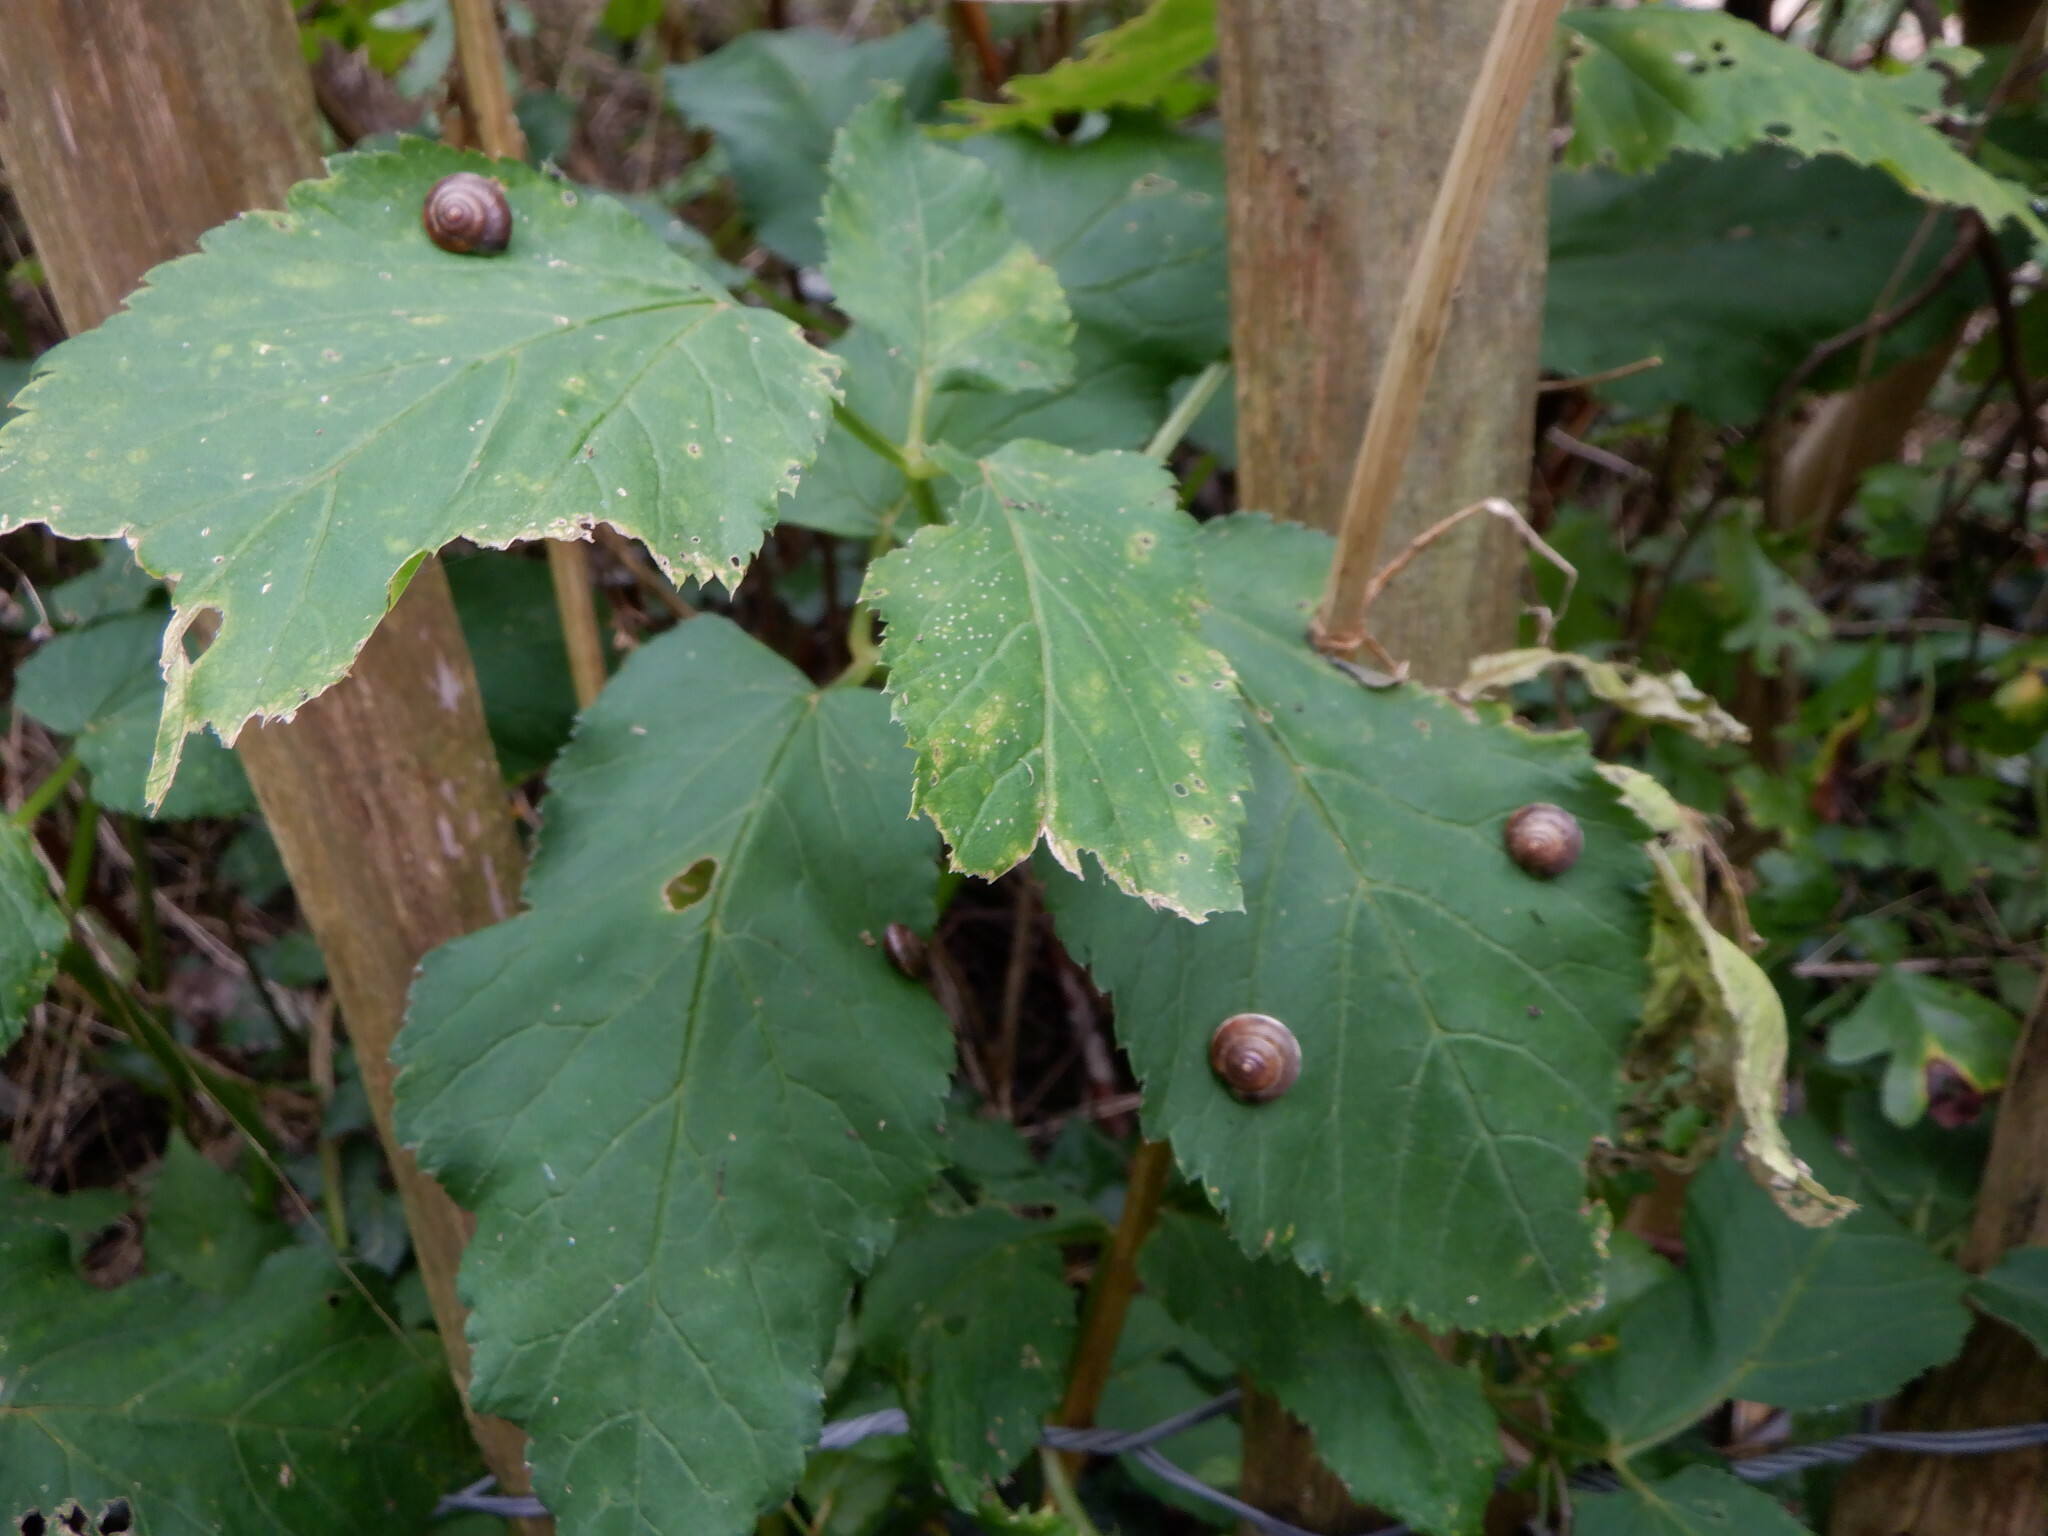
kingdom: Animalia
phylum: Mollusca
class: Gastropoda
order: Stylommatophora
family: Hygromiidae
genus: Hygromia
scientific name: Hygromia cinctella
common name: Girdled snail
